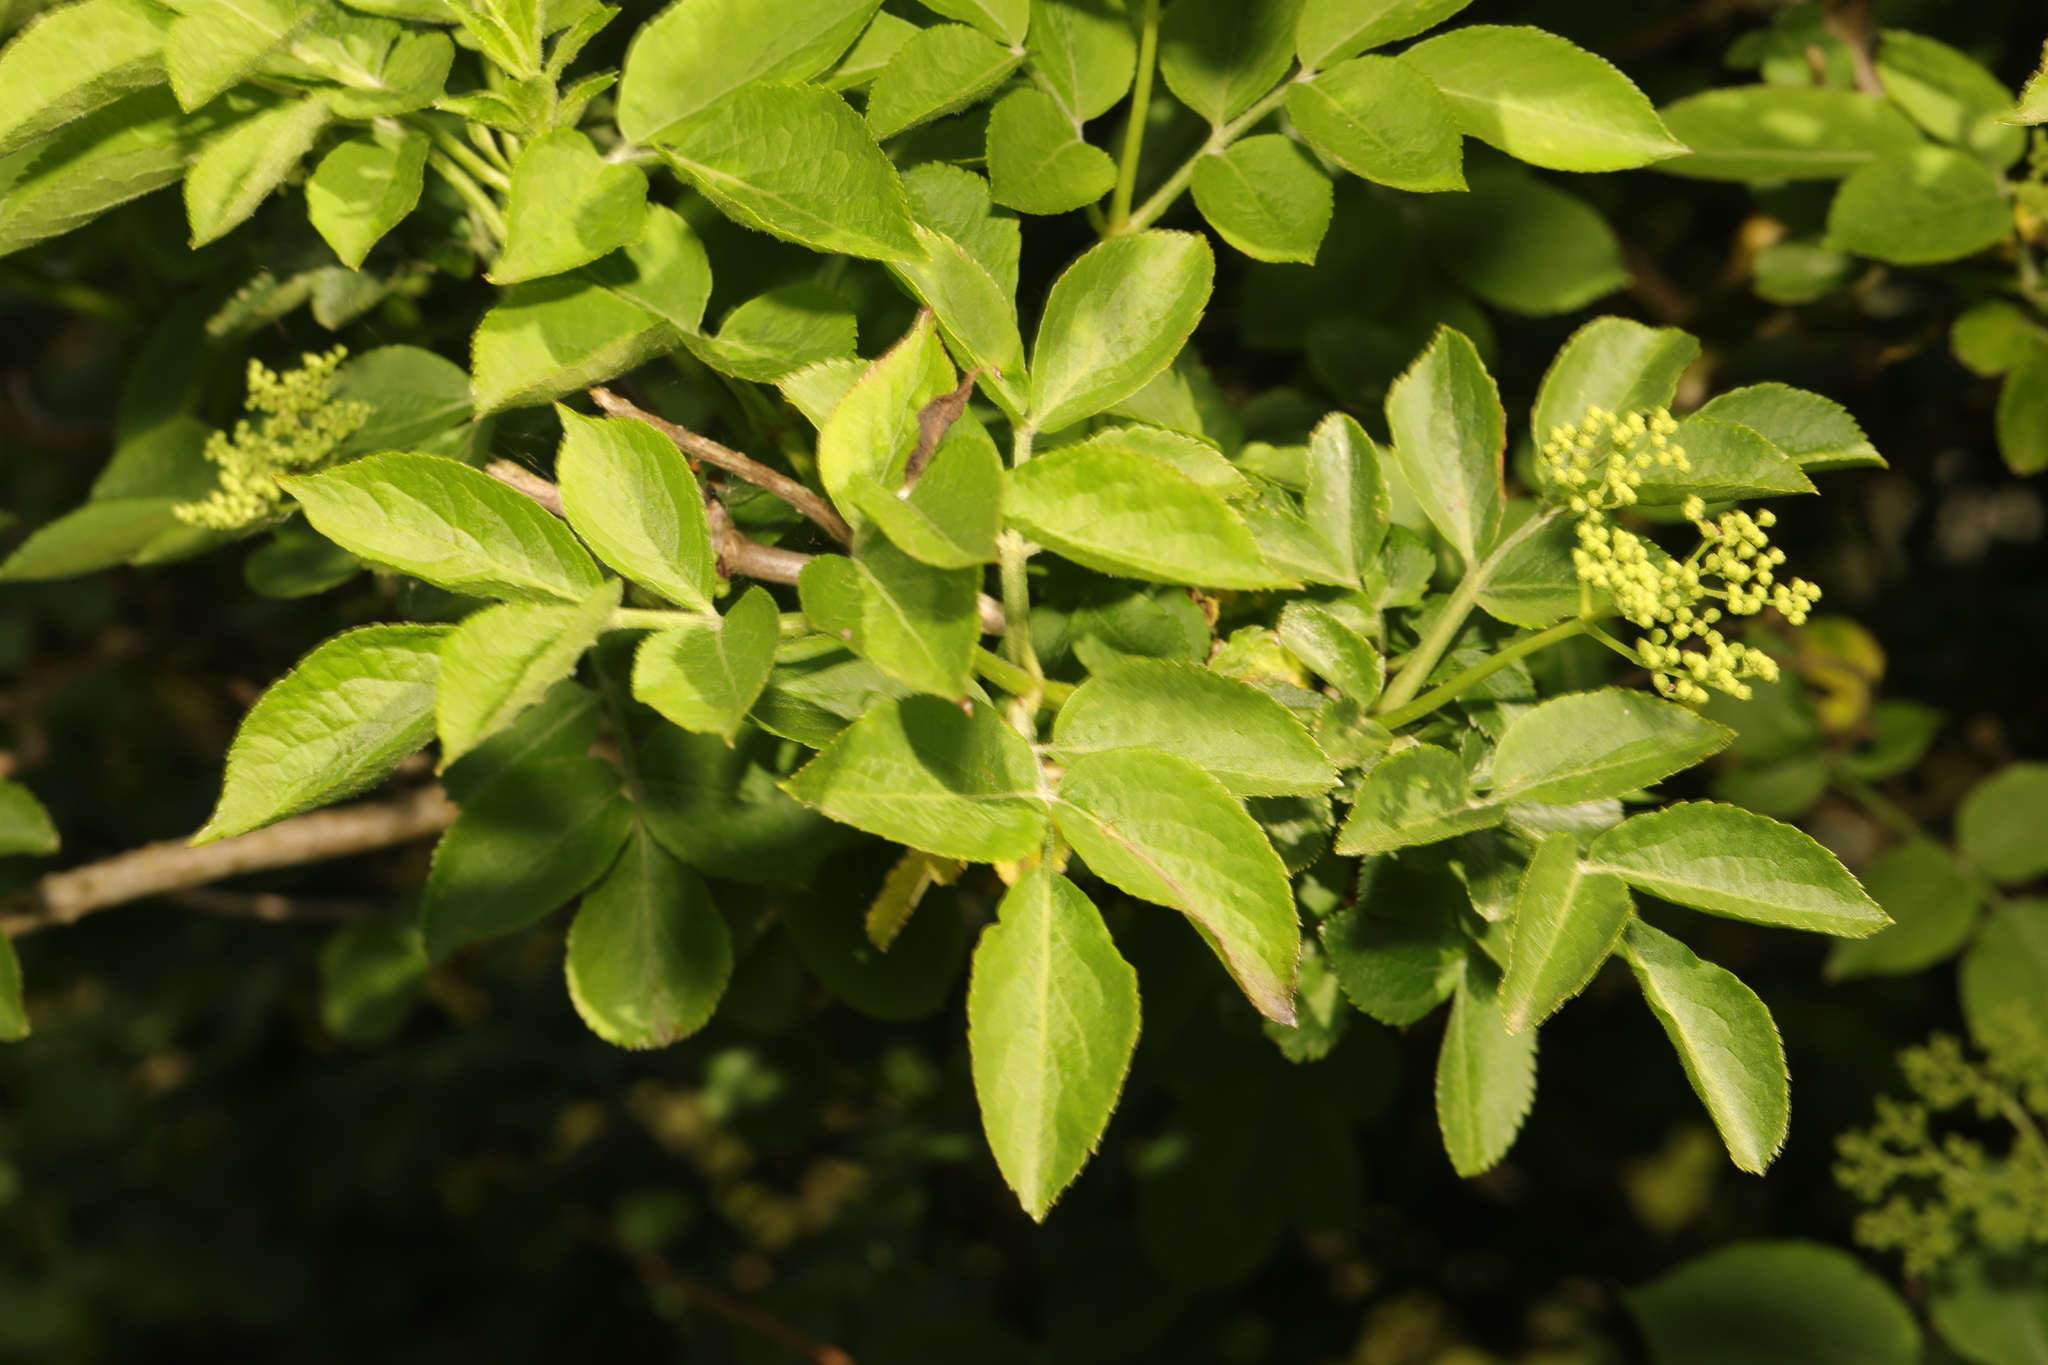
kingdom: Plantae
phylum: Tracheophyta
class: Magnoliopsida
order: Dipsacales
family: Viburnaceae
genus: Sambucus
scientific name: Sambucus nigra
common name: Elder
